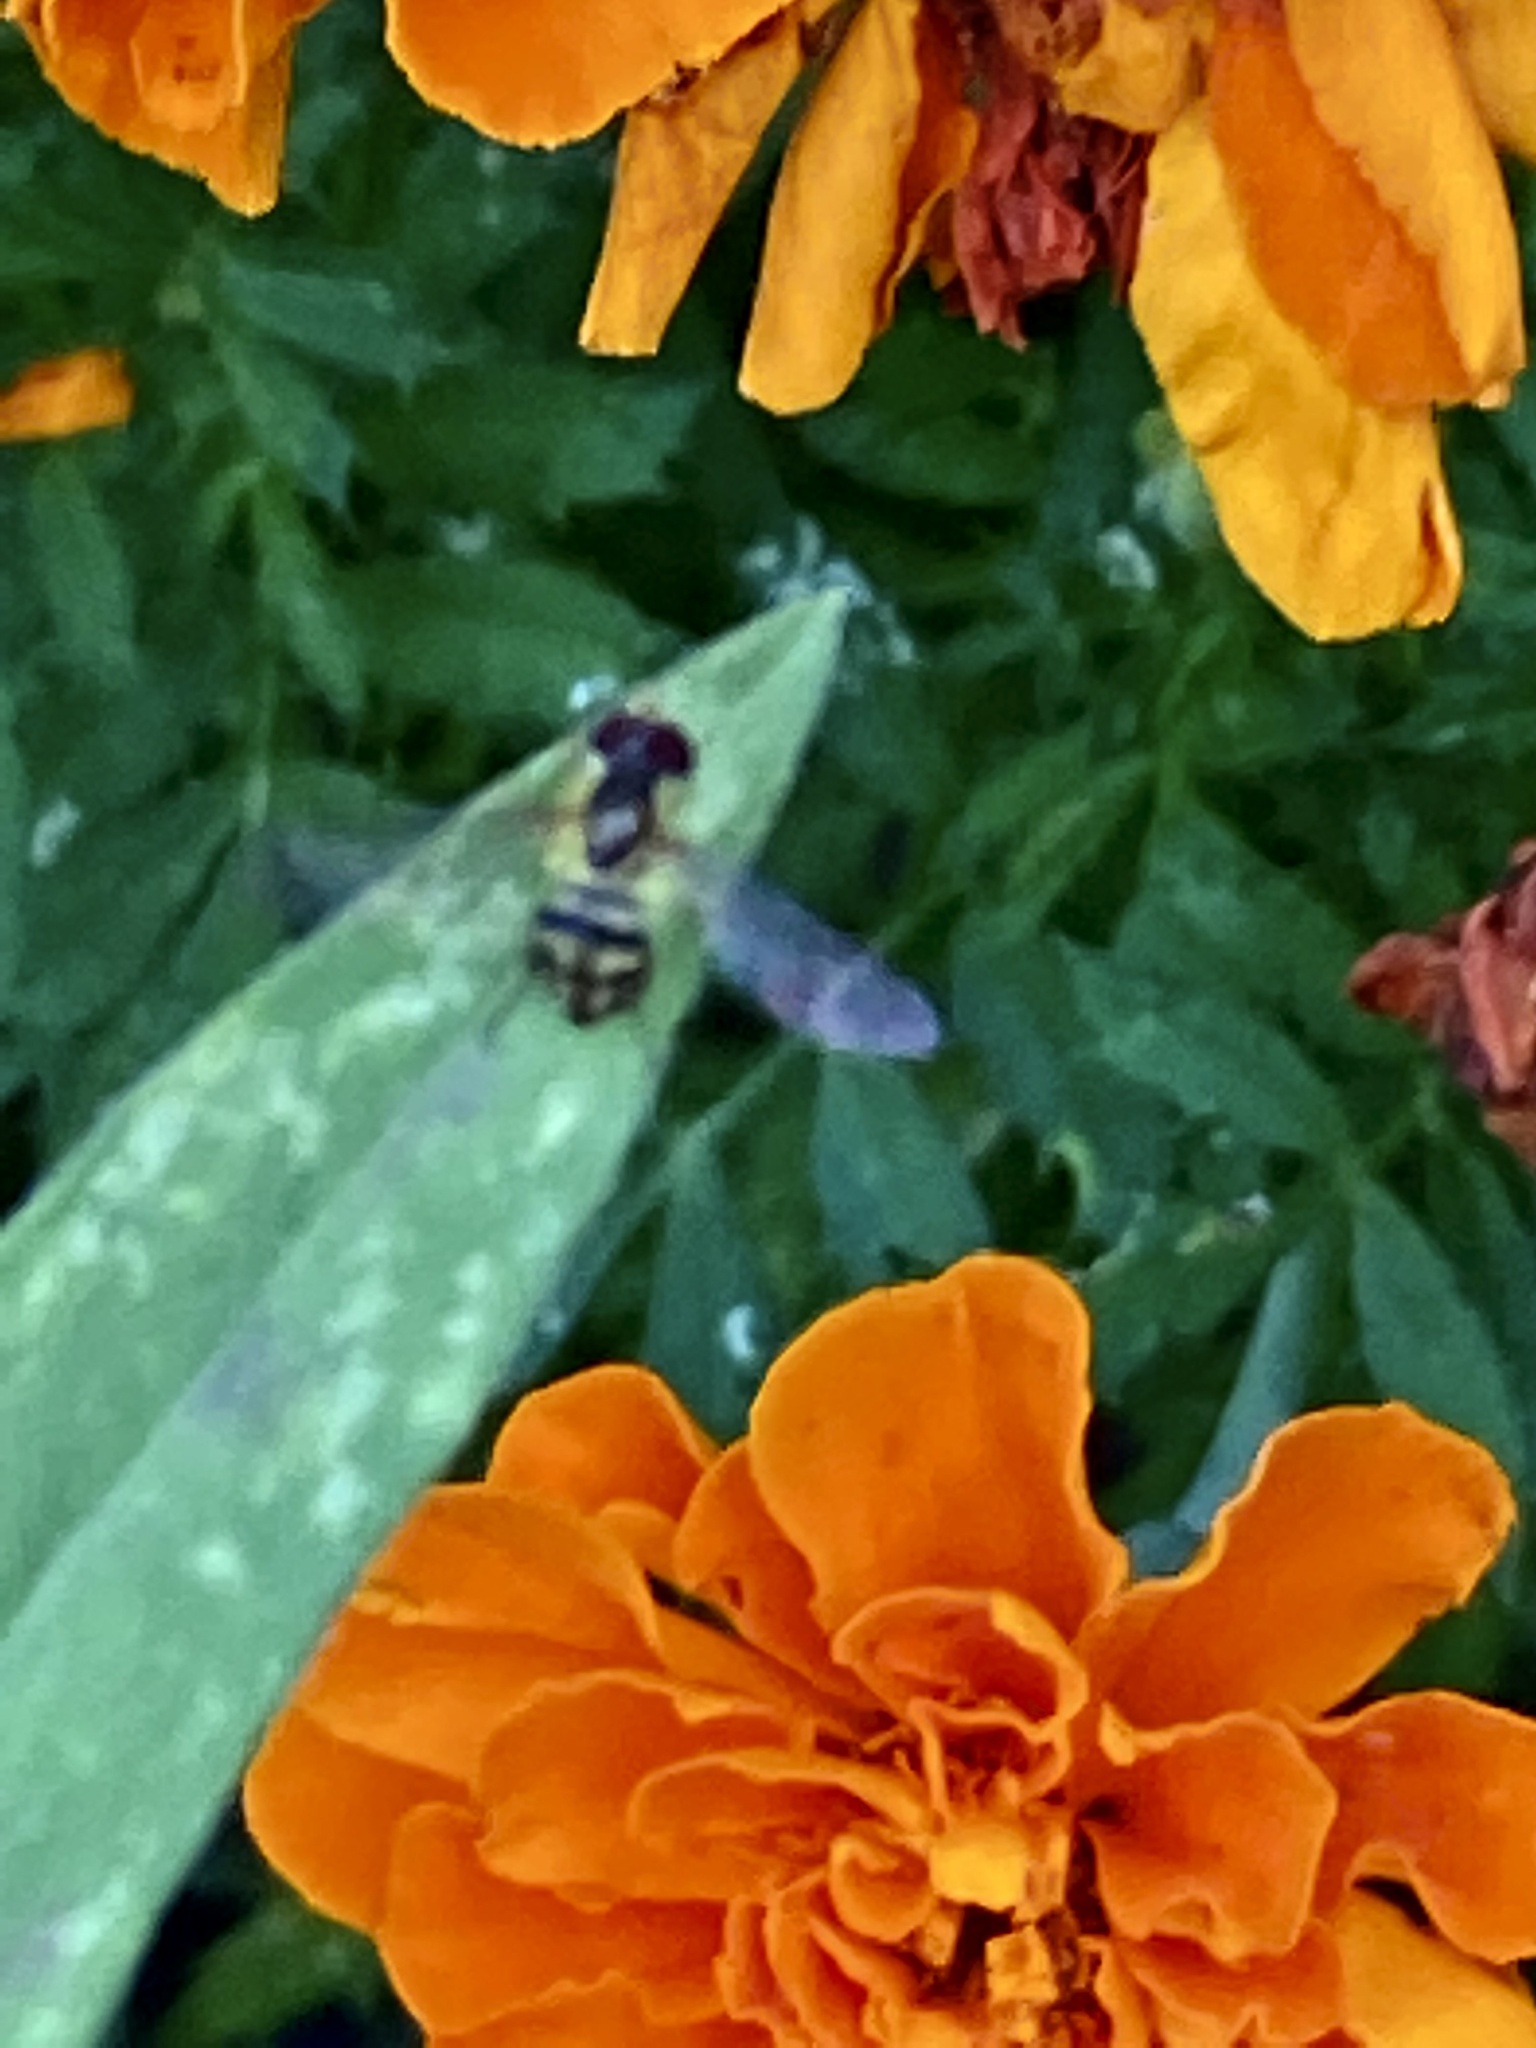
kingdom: Animalia
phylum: Arthropoda
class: Insecta
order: Diptera
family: Syrphidae
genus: Toxomerus
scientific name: Toxomerus geminatus
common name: Eastern calligrapher
